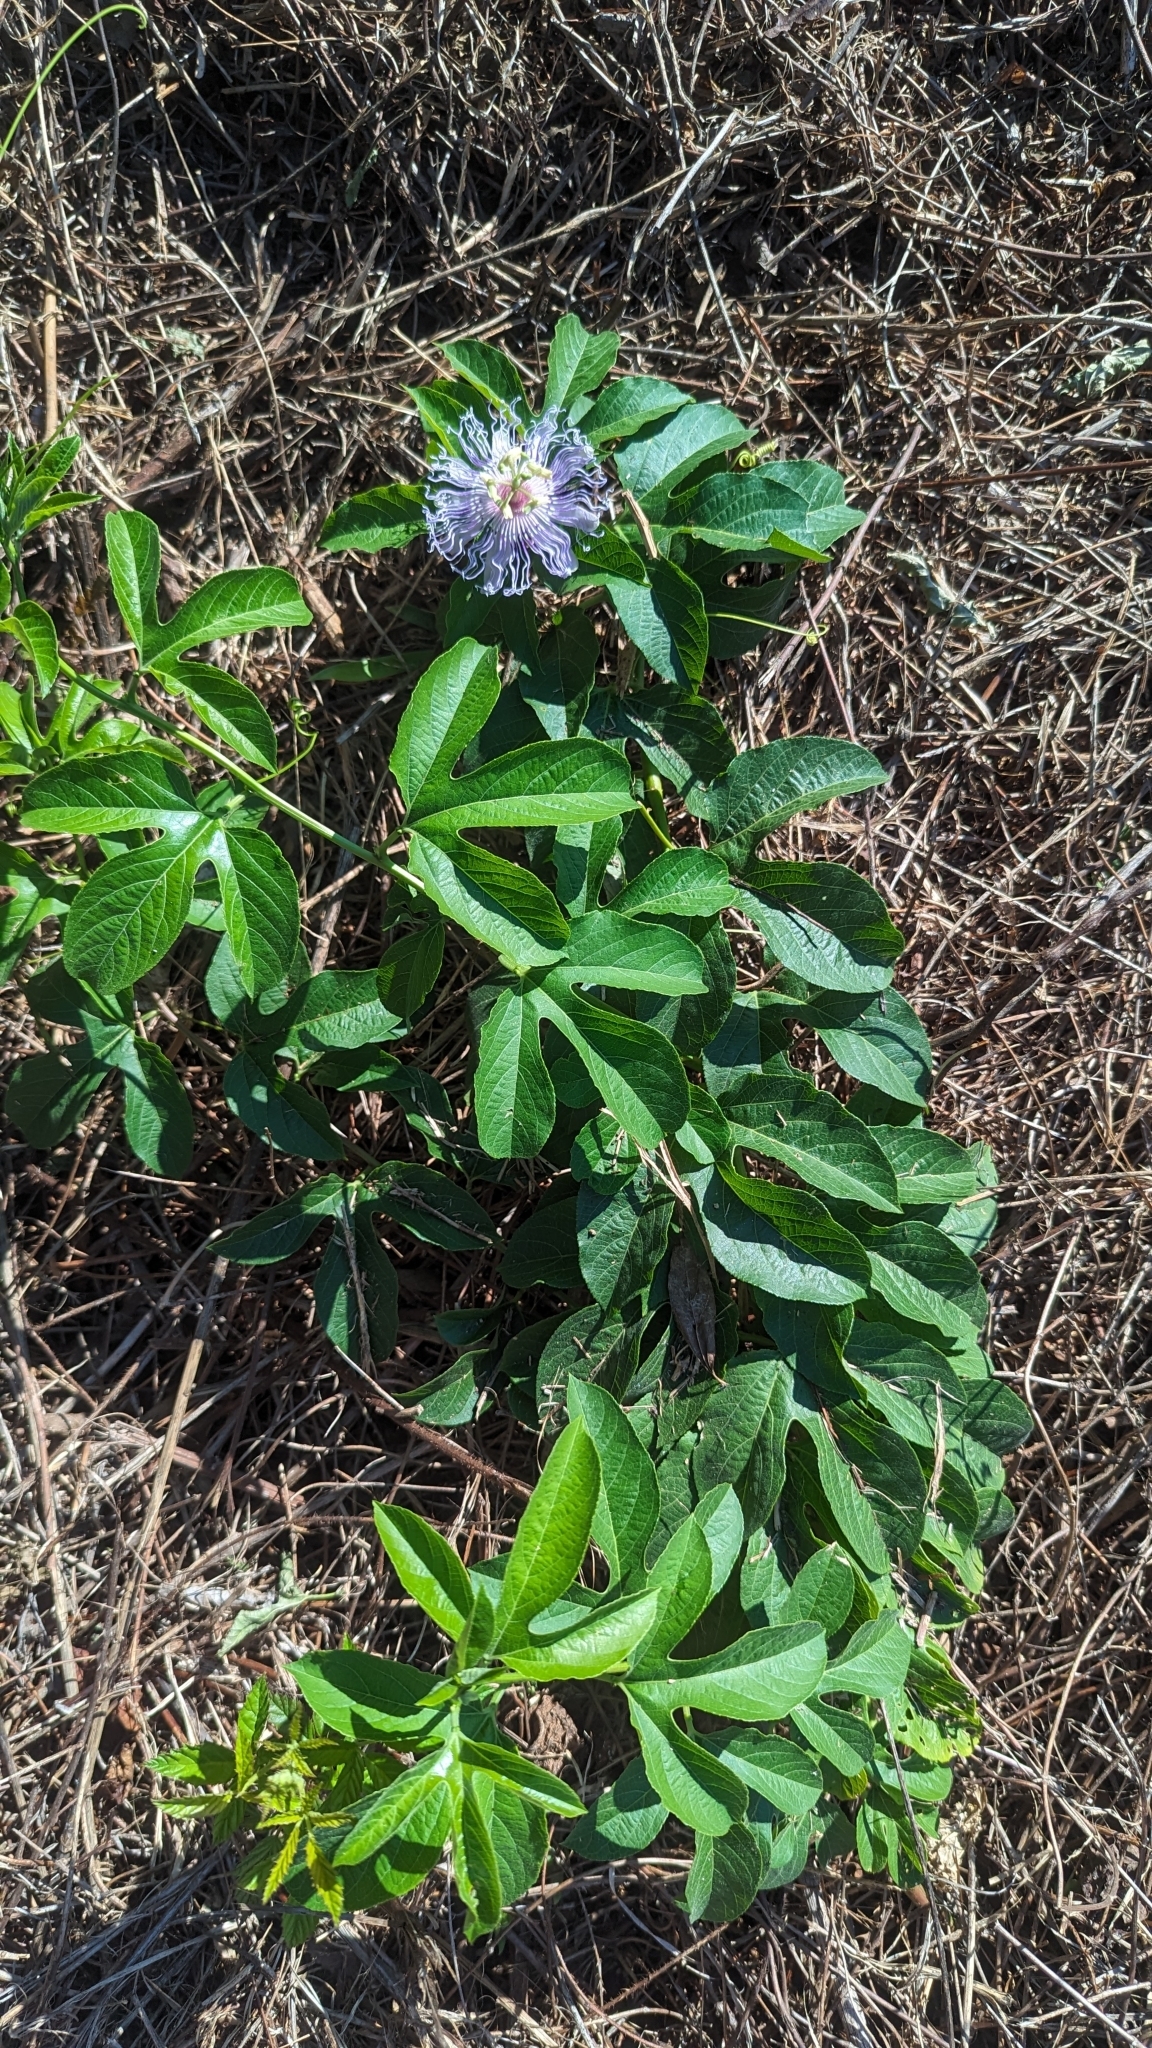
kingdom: Plantae
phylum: Tracheophyta
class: Magnoliopsida
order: Malpighiales
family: Passifloraceae
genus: Passiflora
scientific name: Passiflora incarnata
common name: Apricot-vine
